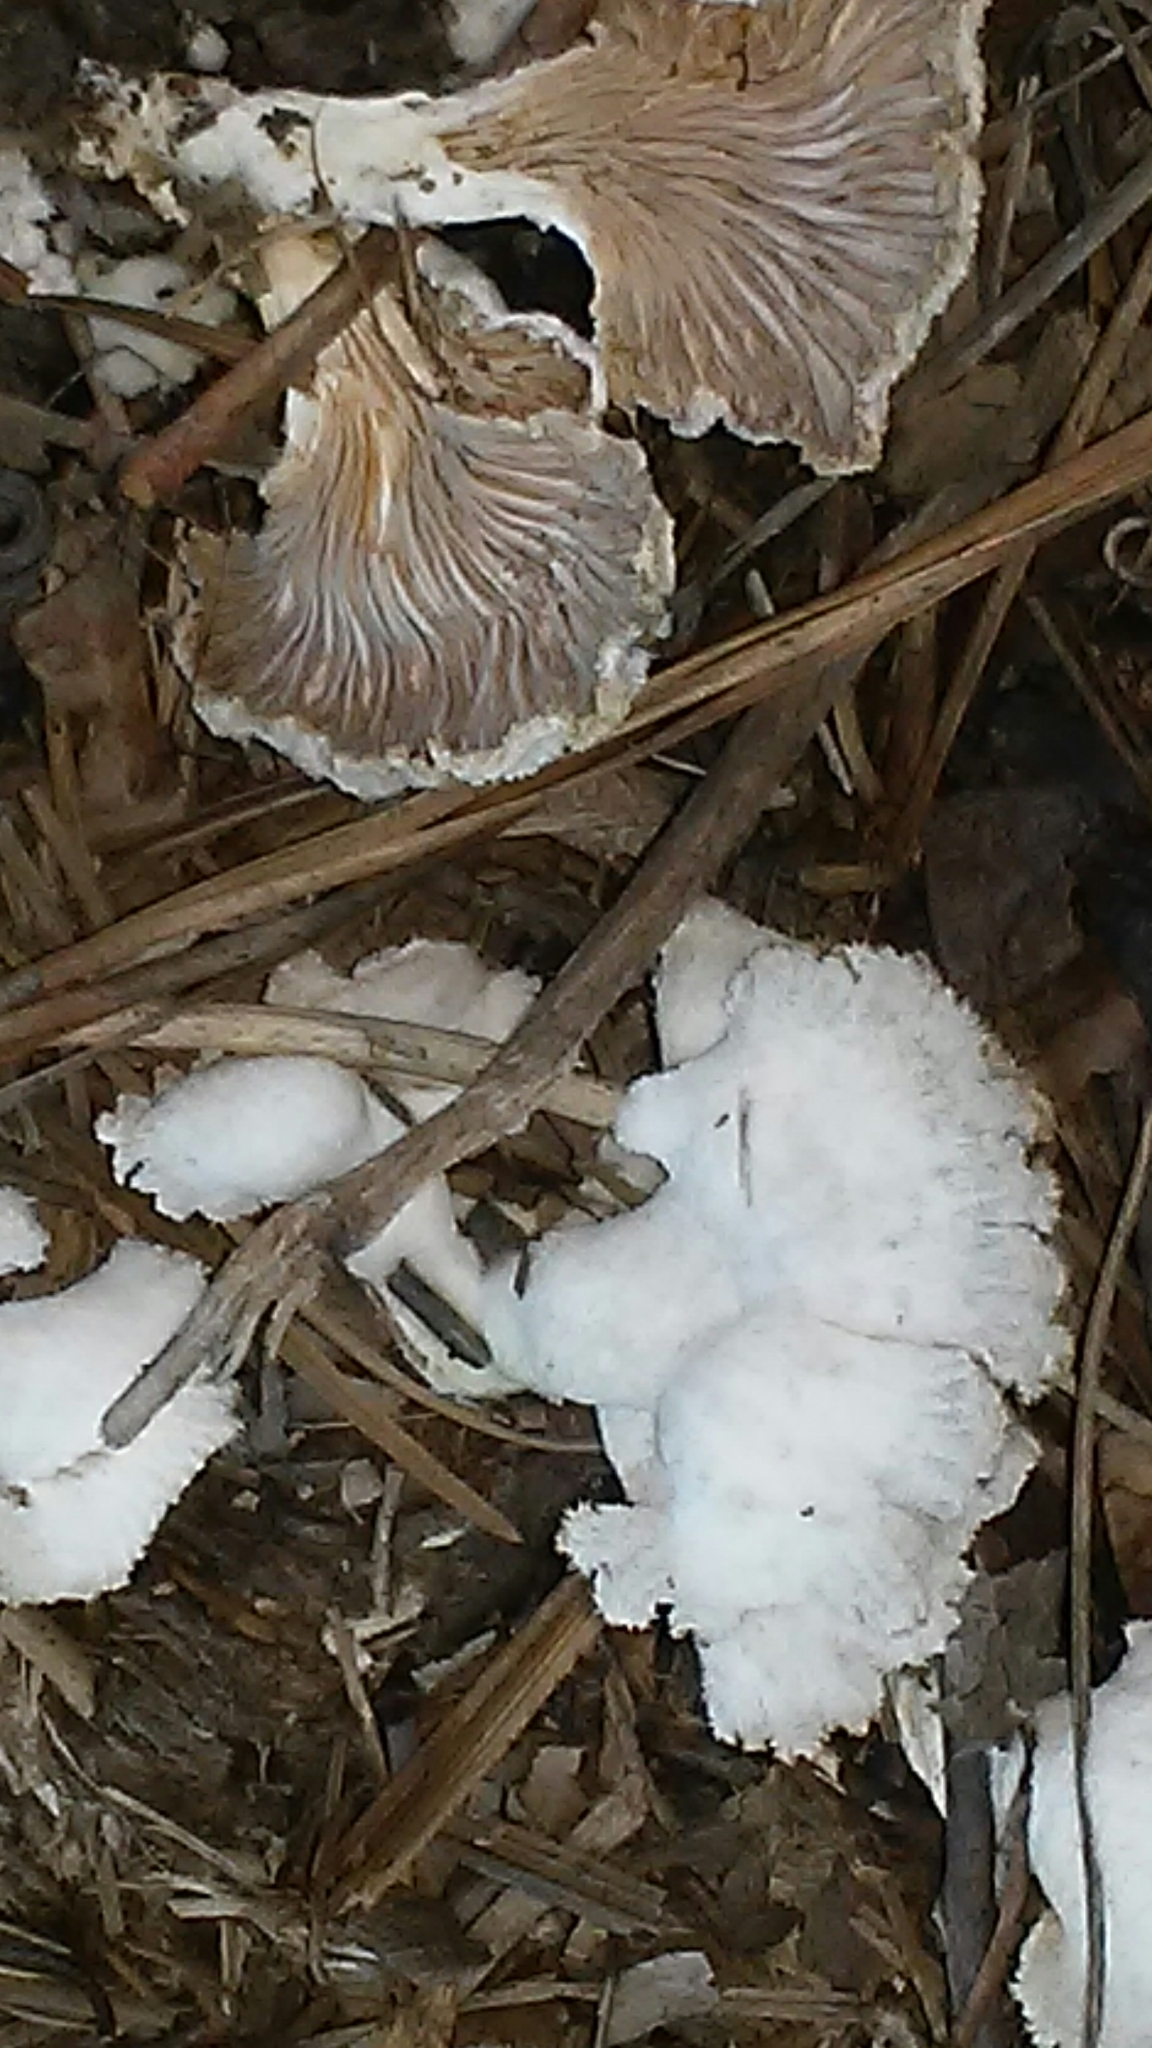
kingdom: Fungi
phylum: Basidiomycota
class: Agaricomycetes
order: Agaricales
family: Schizophyllaceae
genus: Schizophyllum
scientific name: Schizophyllum commune
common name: Common porecrust
